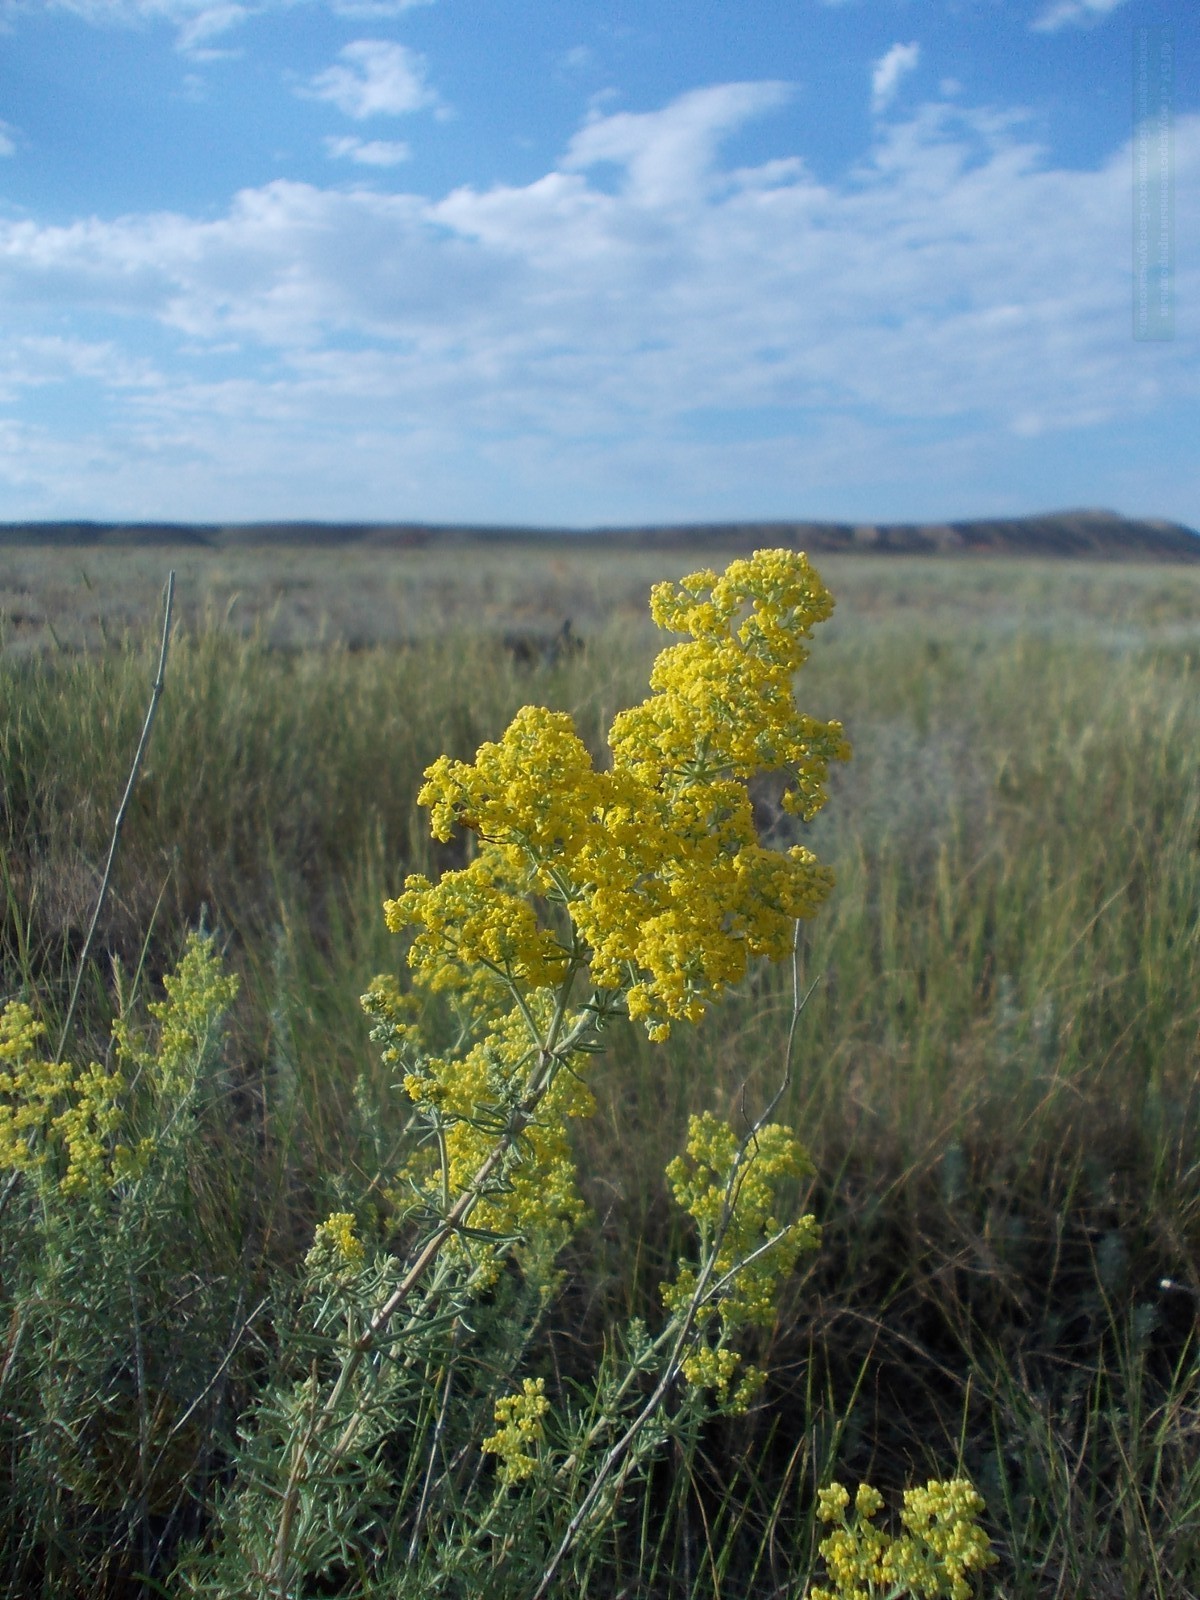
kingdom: Plantae
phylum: Tracheophyta
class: Magnoliopsida
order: Gentianales
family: Rubiaceae
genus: Galium
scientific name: Galium verum
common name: Lady's bedstraw
